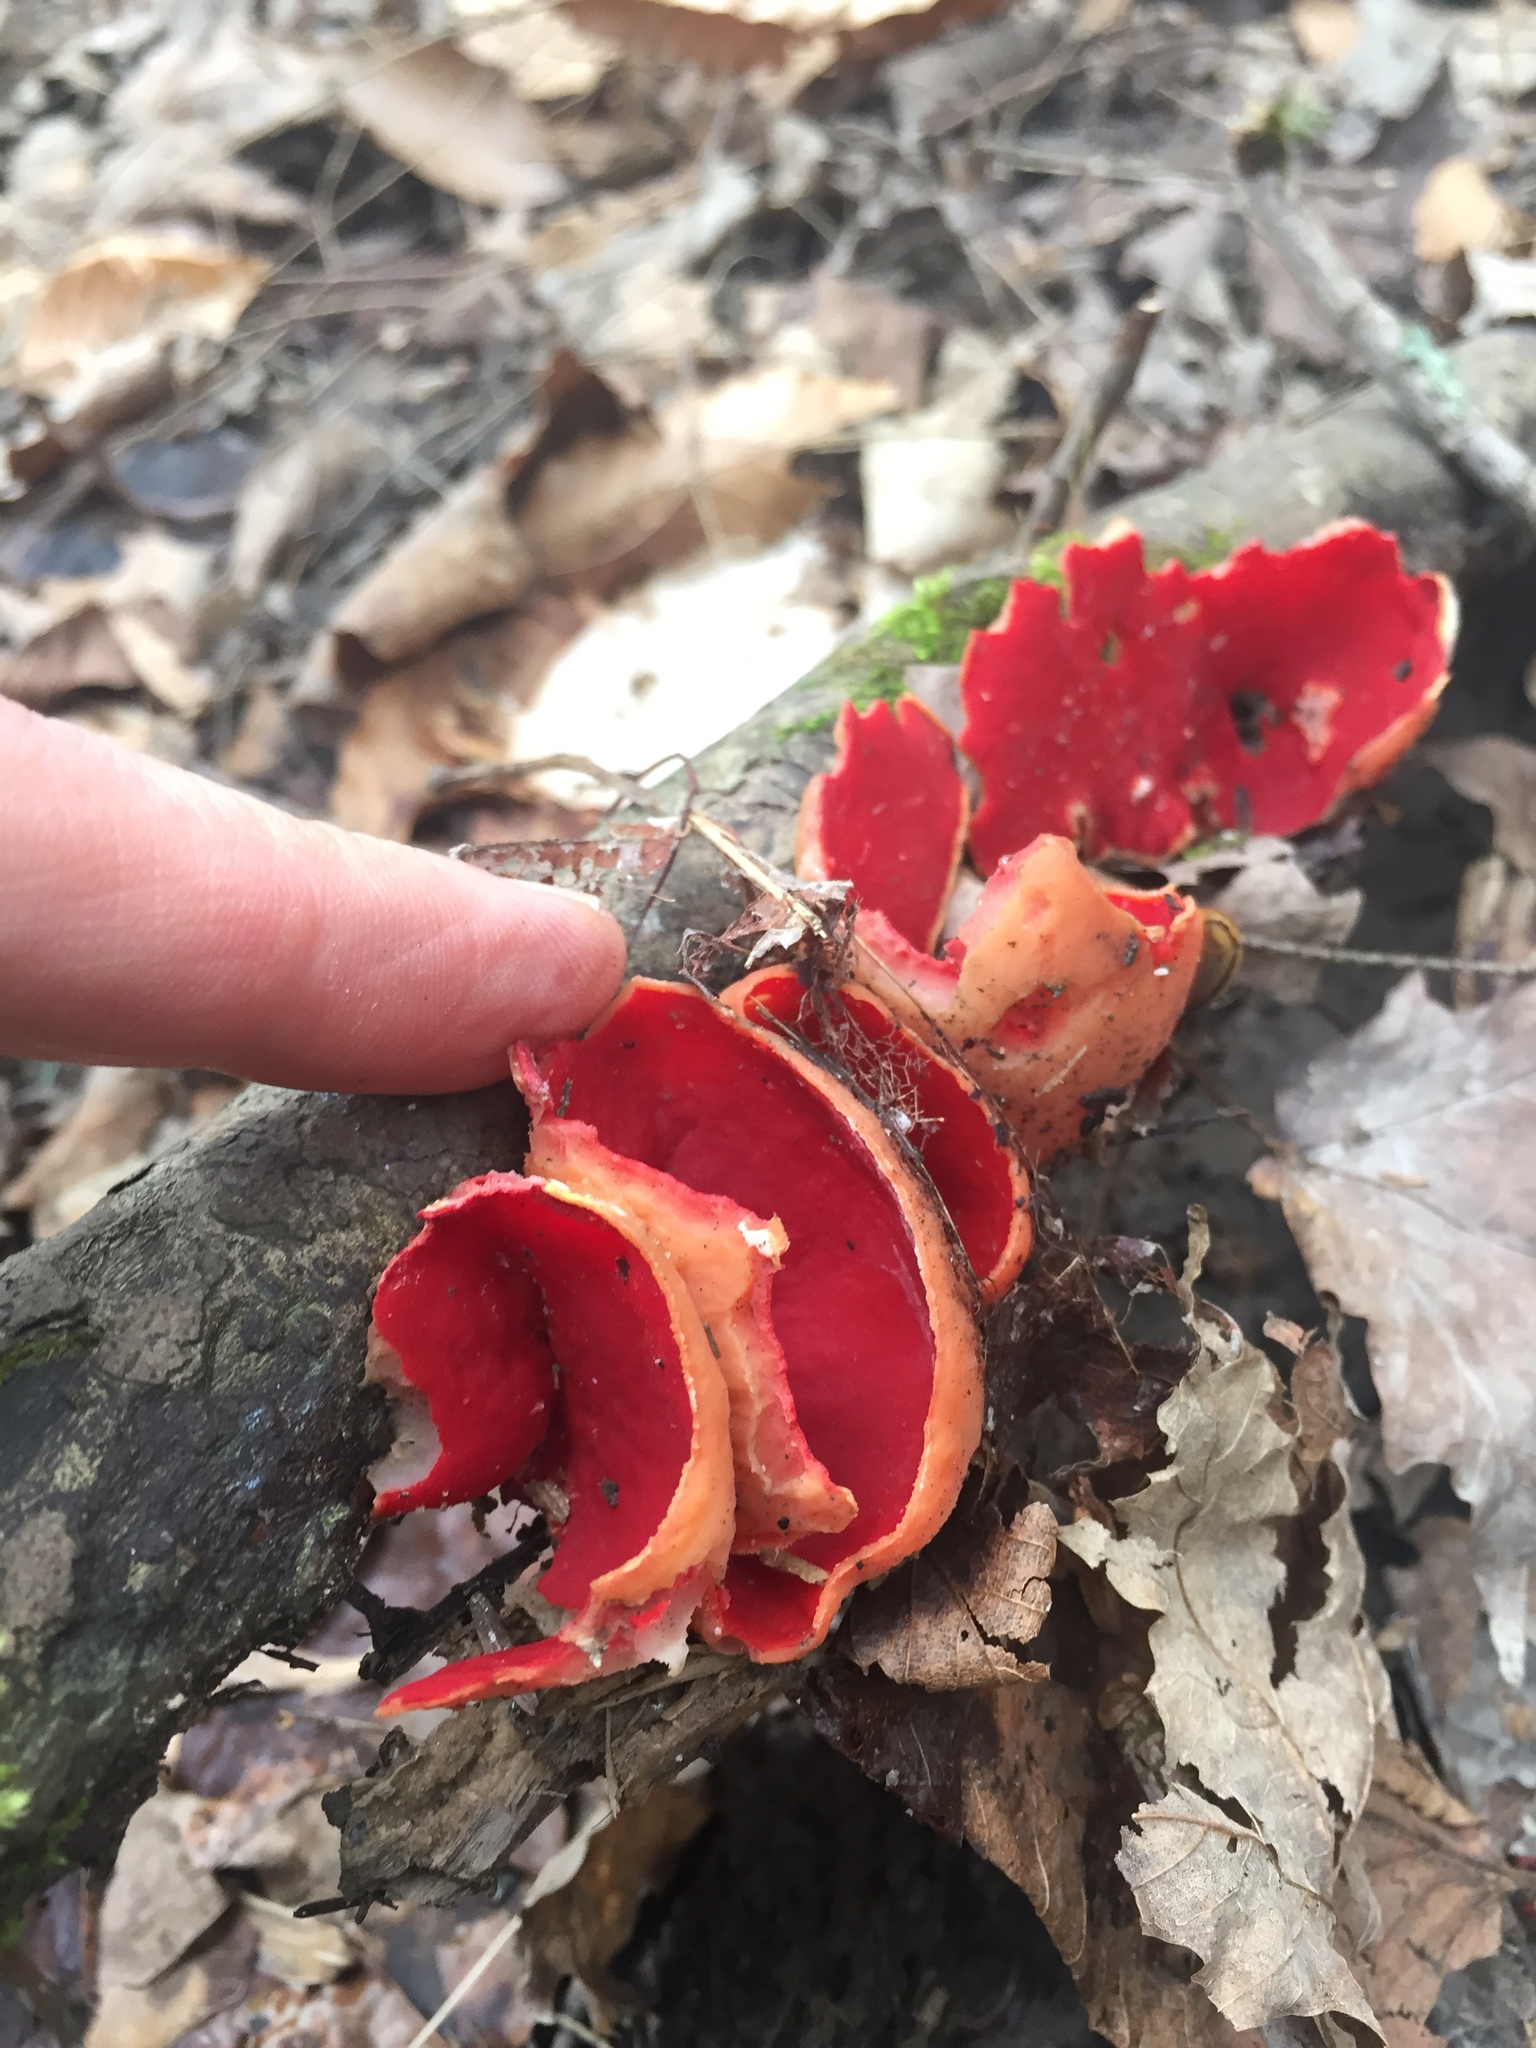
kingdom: Fungi
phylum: Ascomycota
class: Pezizomycetes
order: Pezizales
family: Sarcoscyphaceae
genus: Sarcoscypha
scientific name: Sarcoscypha austriaca
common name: Scarlet elfcup
